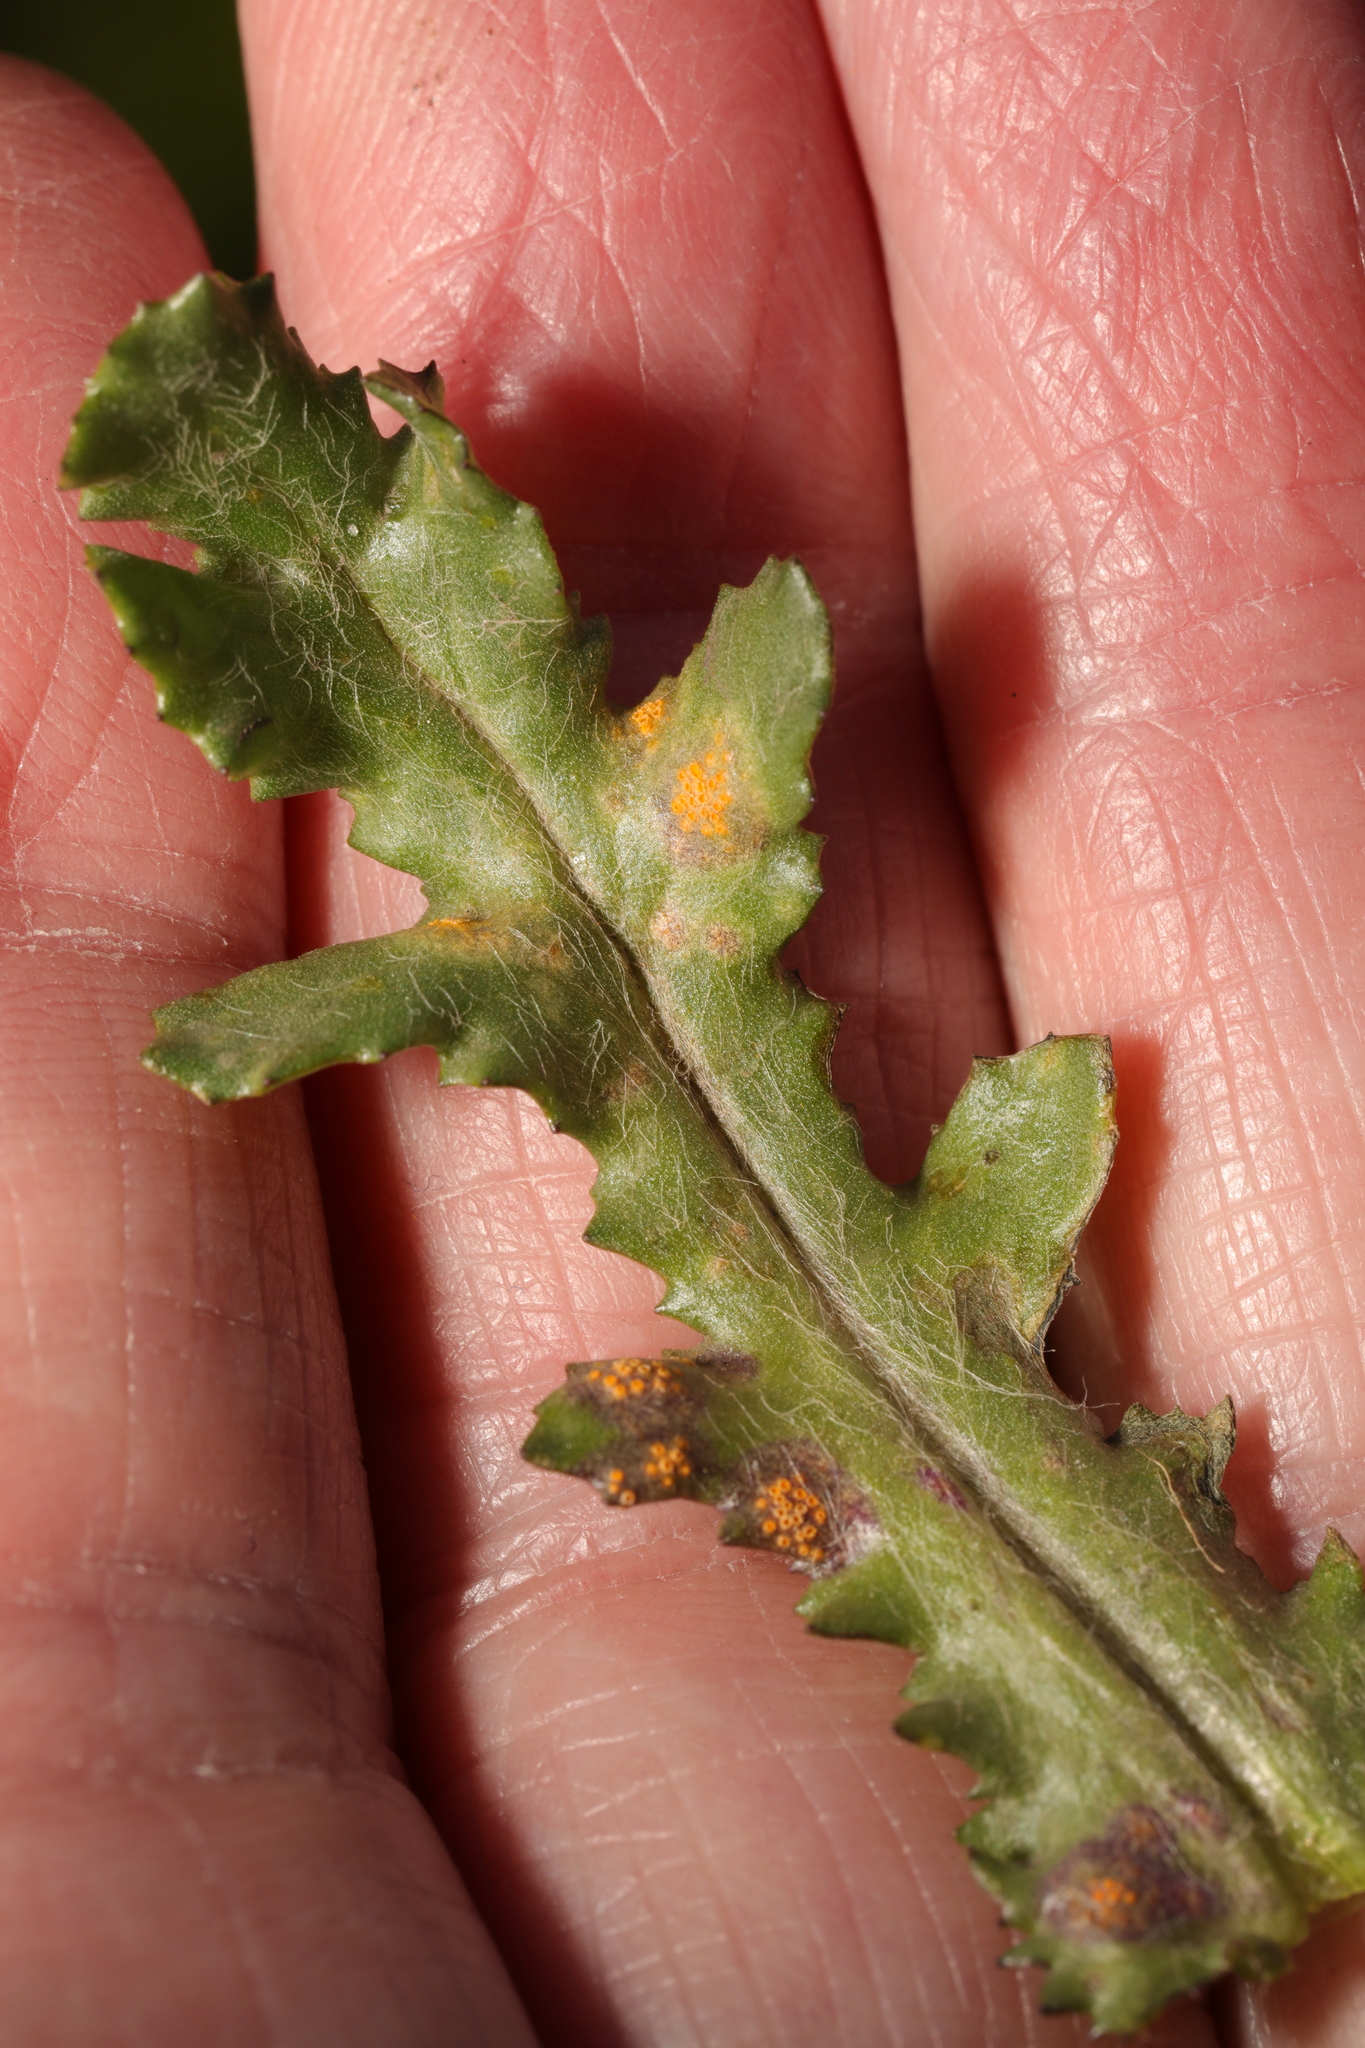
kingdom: Fungi
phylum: Basidiomycota
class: Pucciniomycetes
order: Pucciniales
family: Pucciniaceae
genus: Puccinia
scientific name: Puccinia lagenophorae
